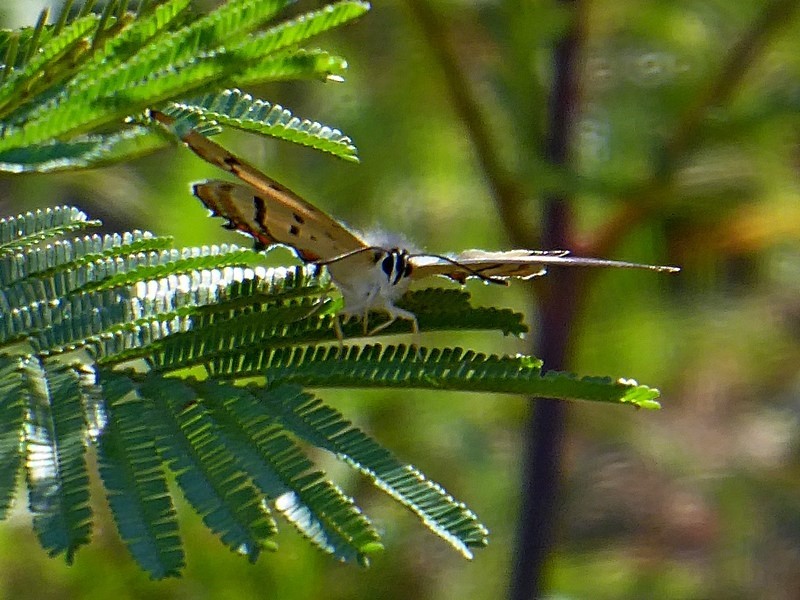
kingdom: Animalia
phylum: Arthropoda
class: Insecta
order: Lepidoptera
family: Lycaenidae
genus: Jalmenus
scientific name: Jalmenus evagoras
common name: Common imperial blue
